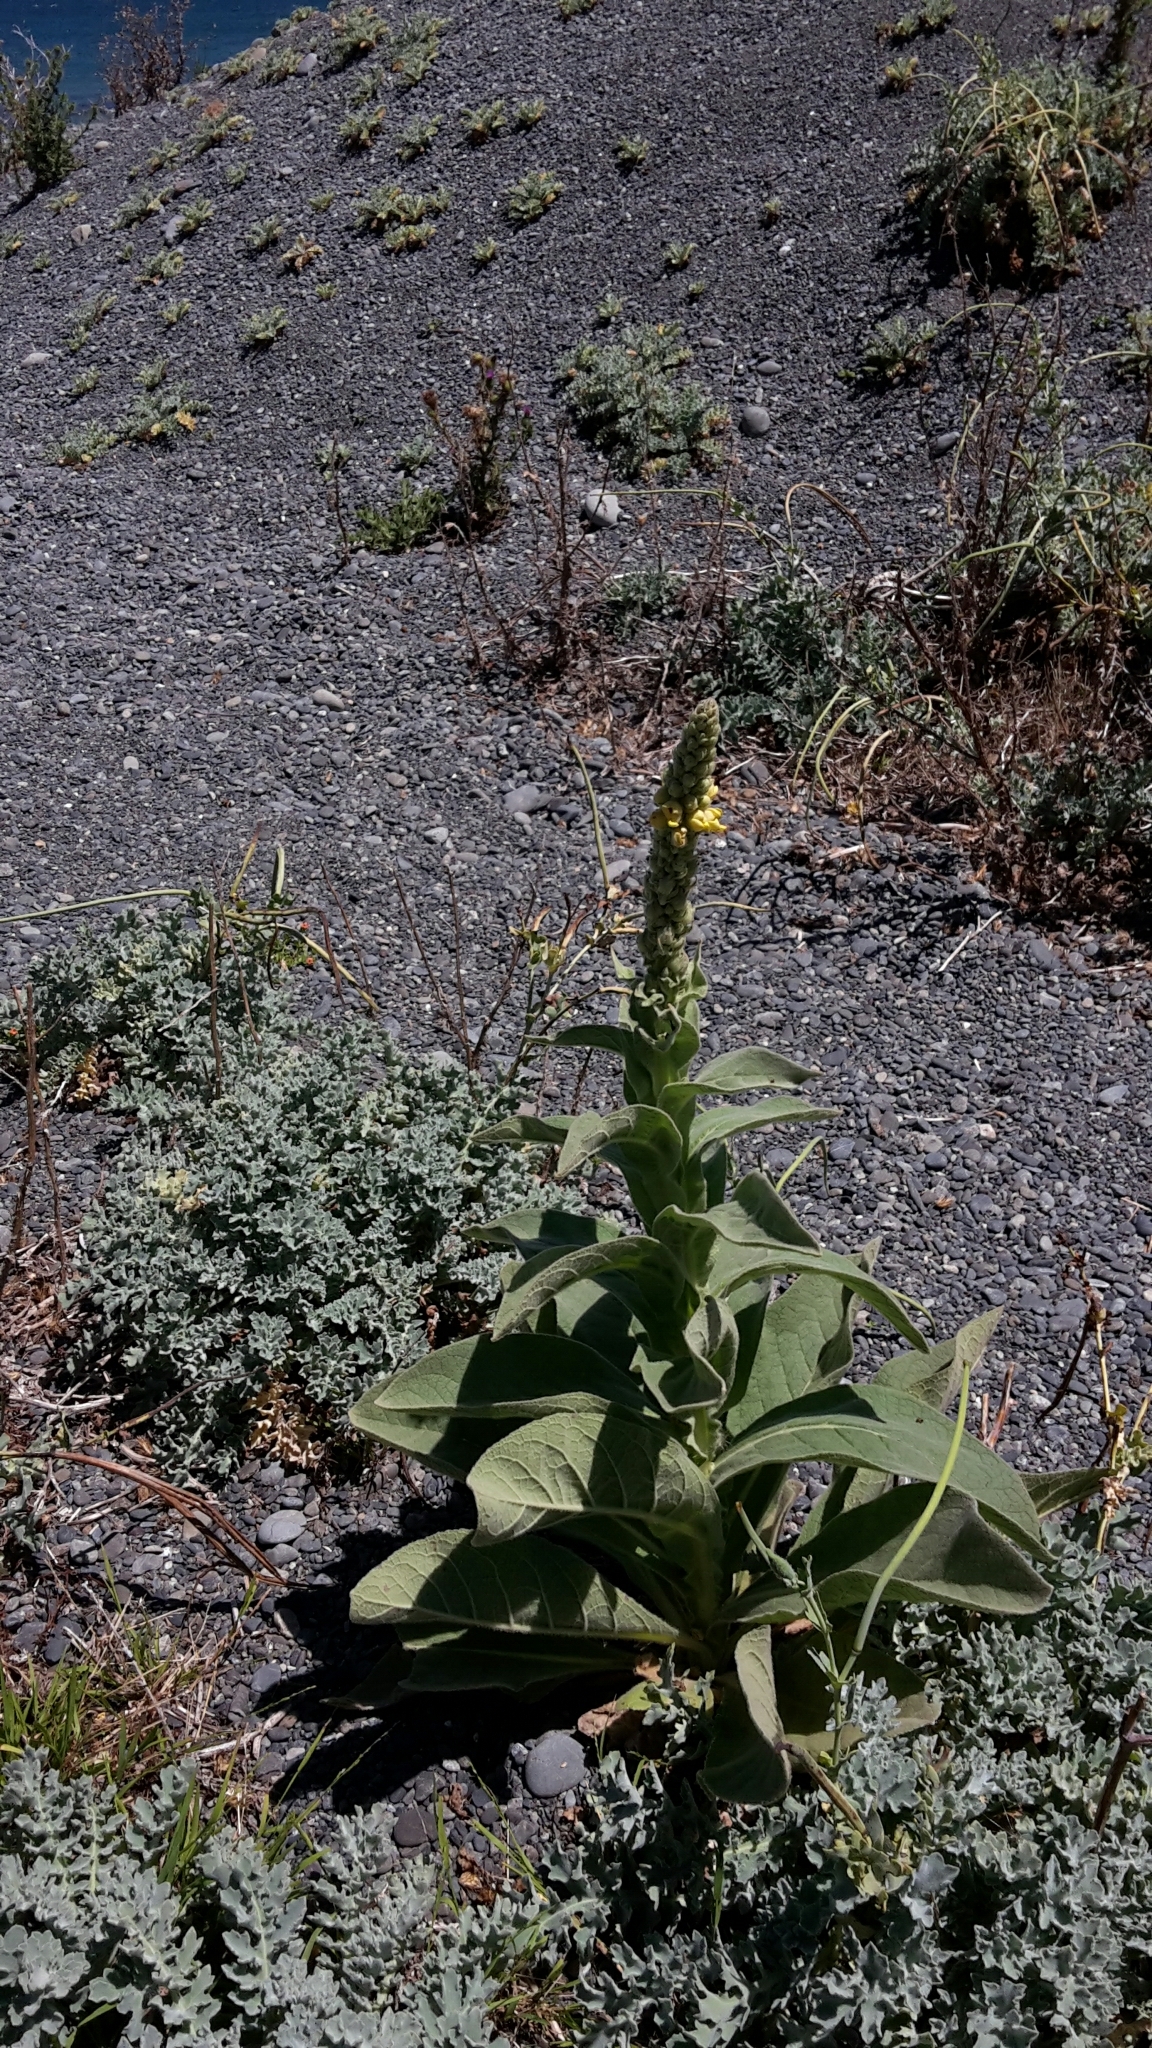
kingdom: Plantae
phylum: Tracheophyta
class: Magnoliopsida
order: Lamiales
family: Scrophulariaceae
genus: Verbascum
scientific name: Verbascum thapsus
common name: Common mullein
